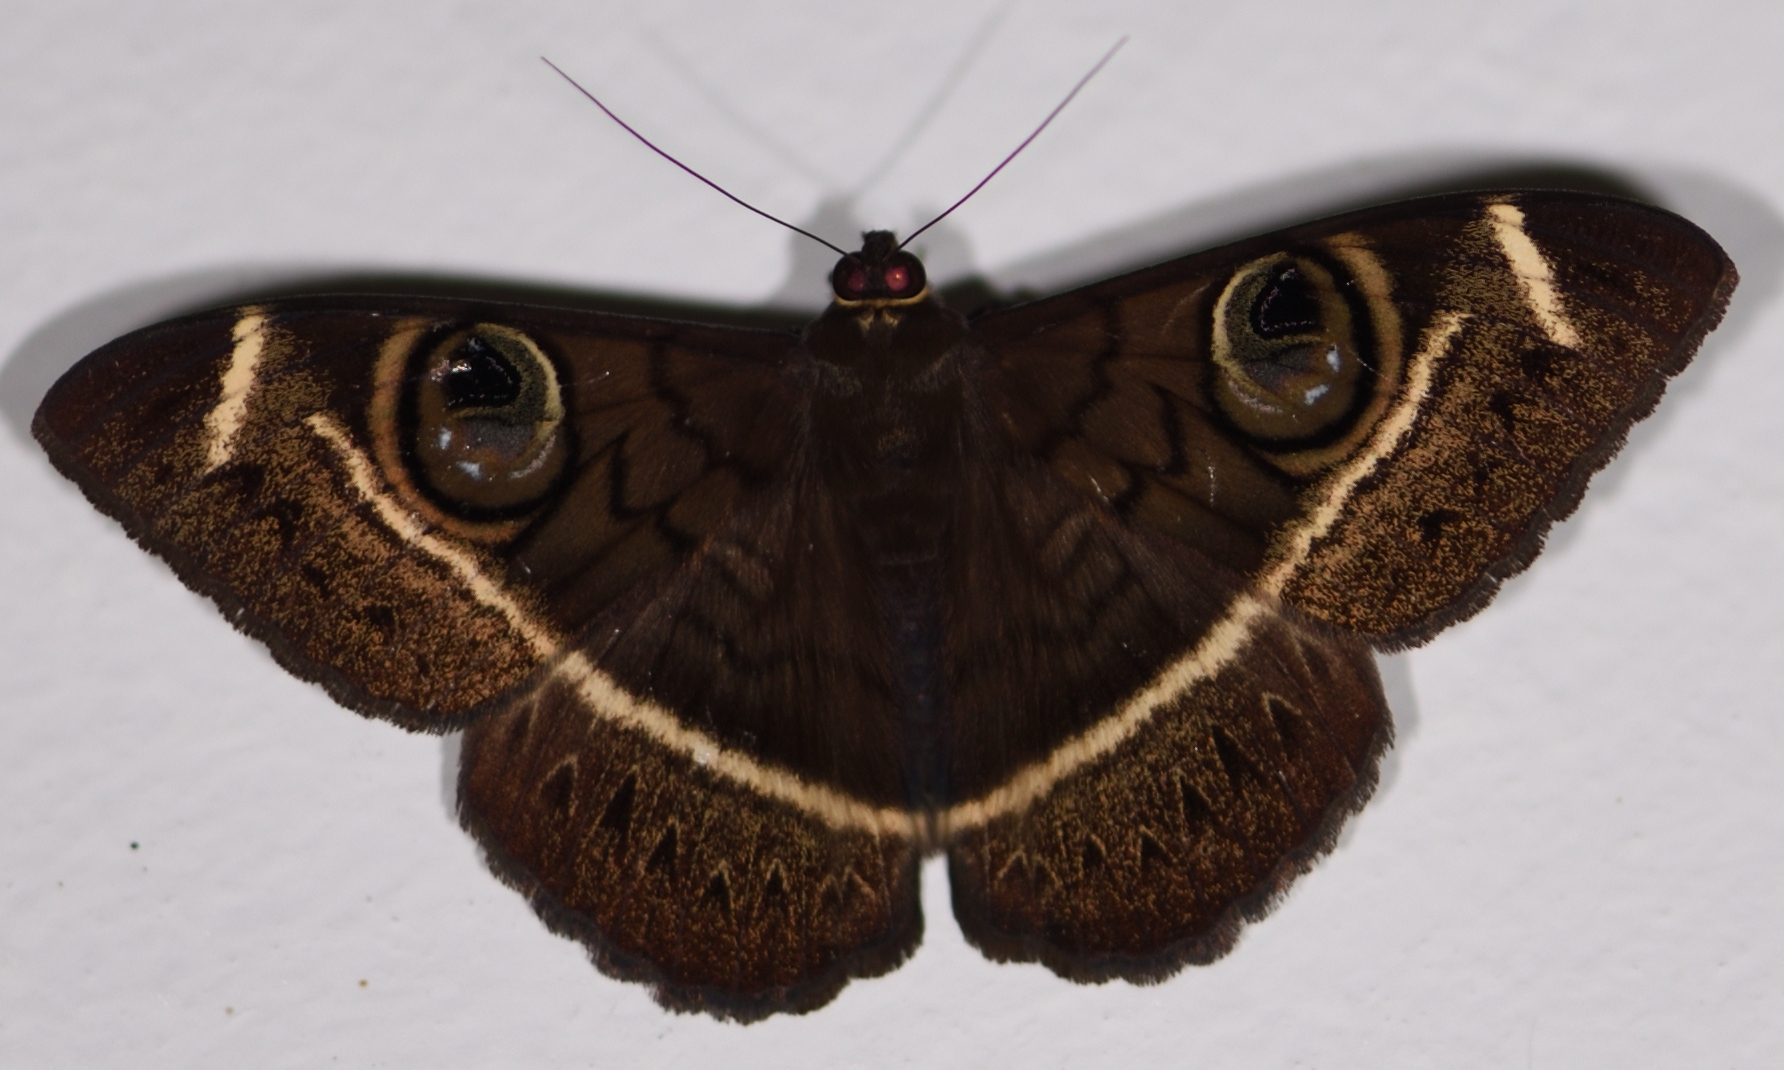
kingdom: Animalia
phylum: Arthropoda
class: Insecta
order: Lepidoptera
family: Erebidae
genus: Cyligramma
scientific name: Cyligramma latona
